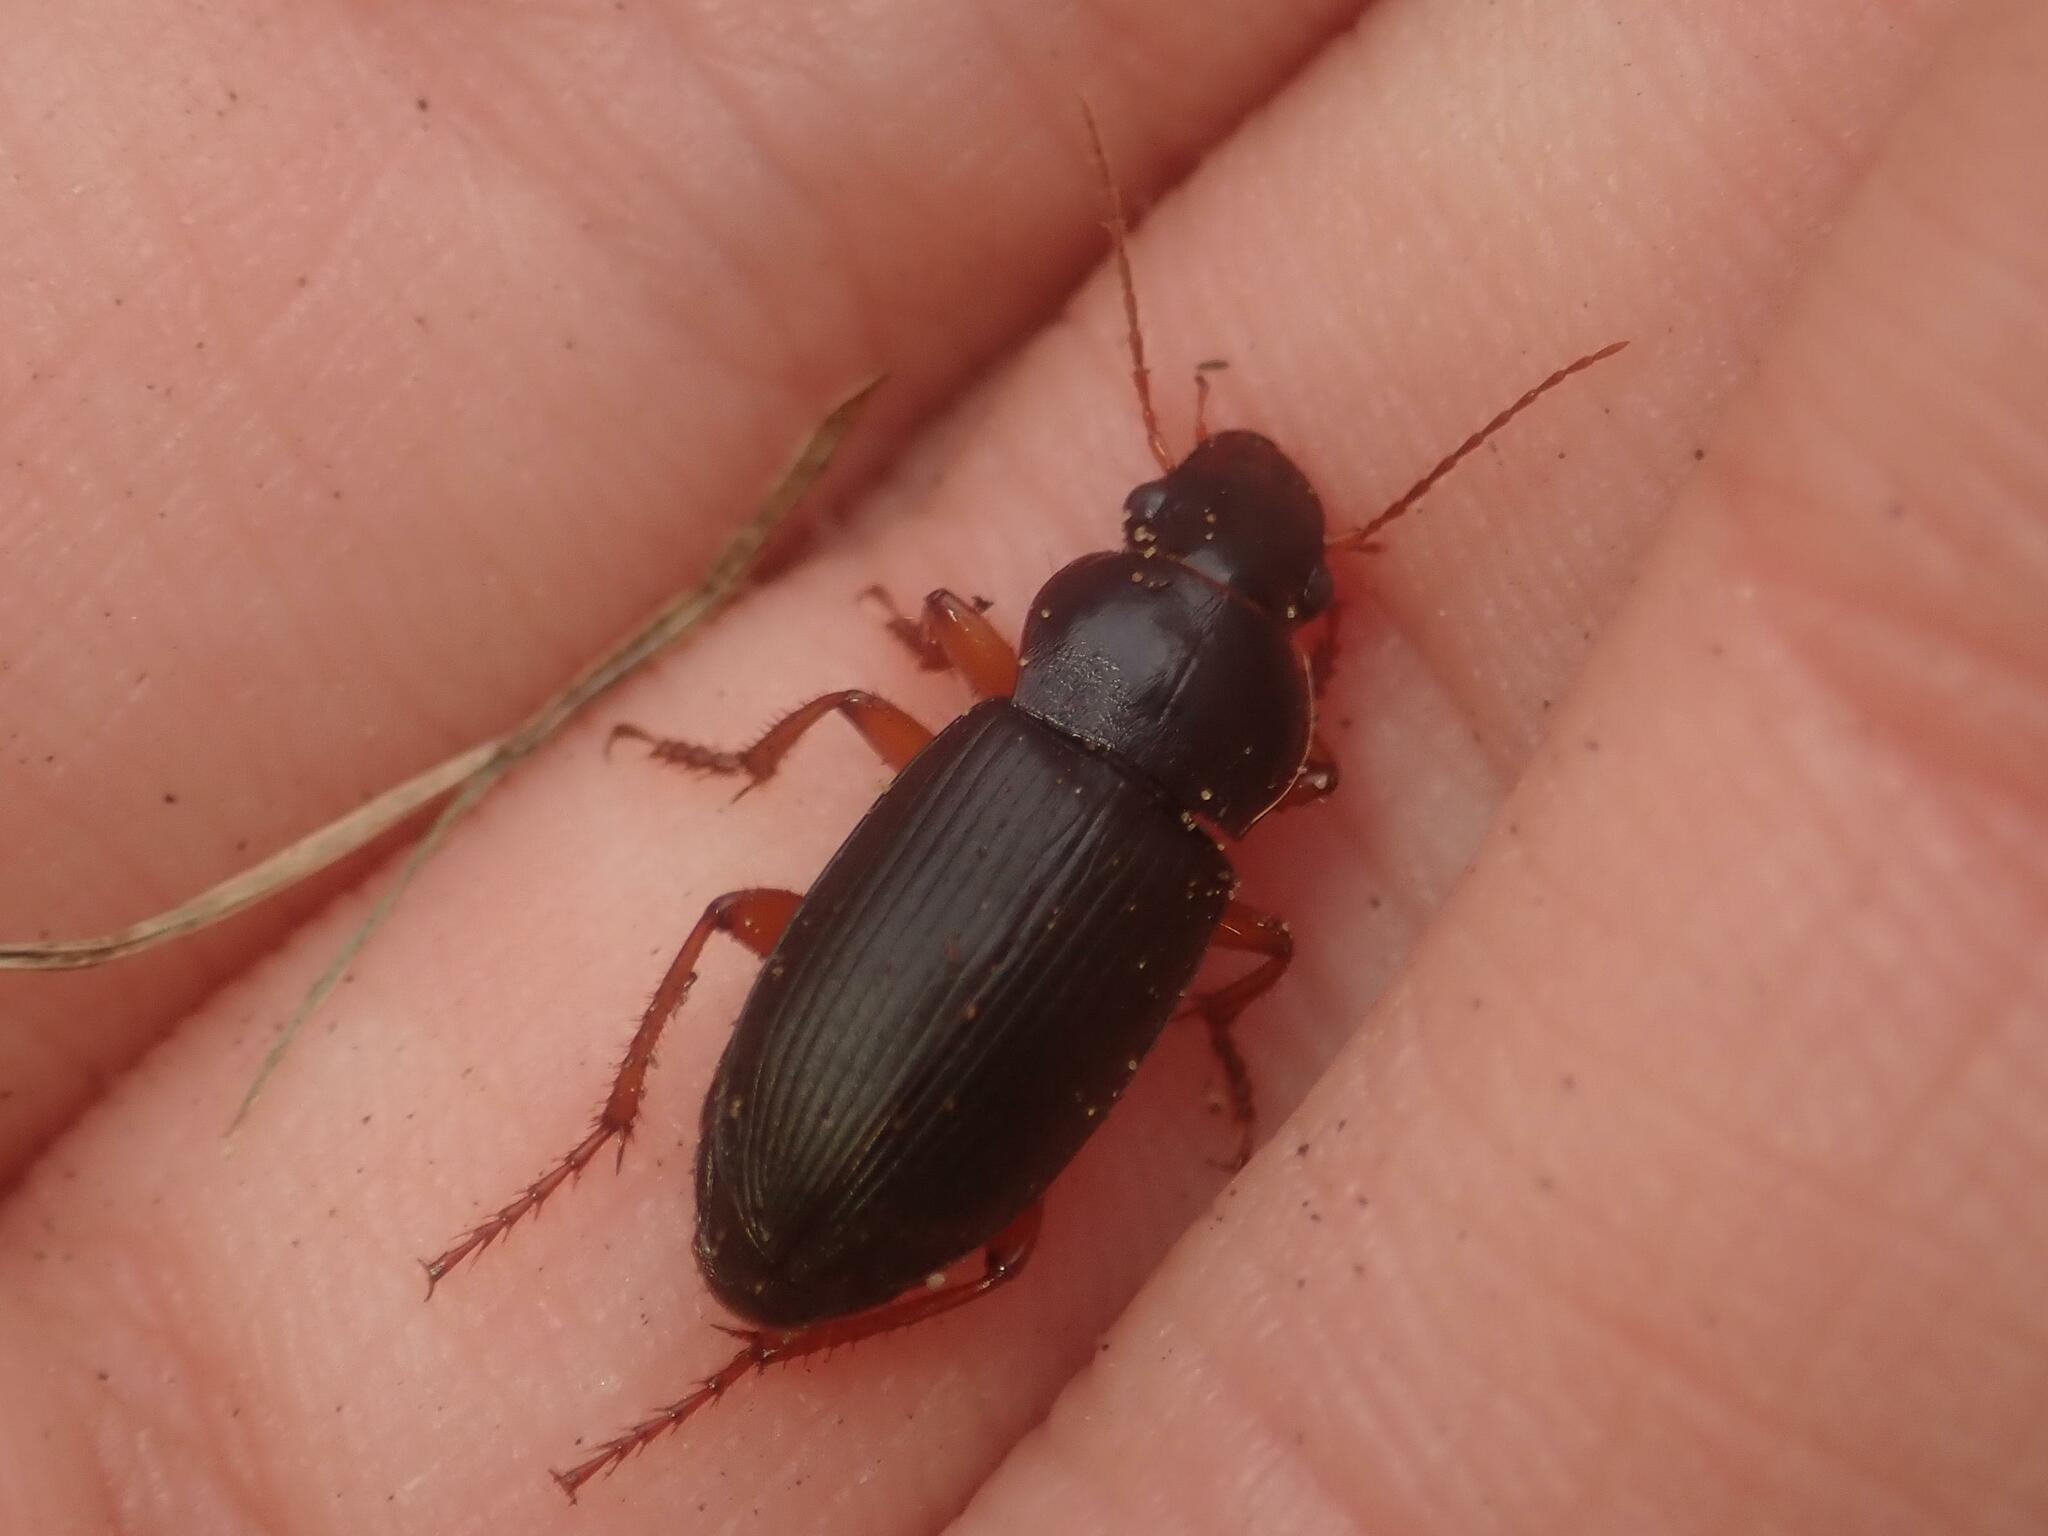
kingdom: Animalia
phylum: Arthropoda
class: Insecta
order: Coleoptera
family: Carabidae
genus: Harpalus
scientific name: Harpalus rufipes
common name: Strawberry harp ground beetle
